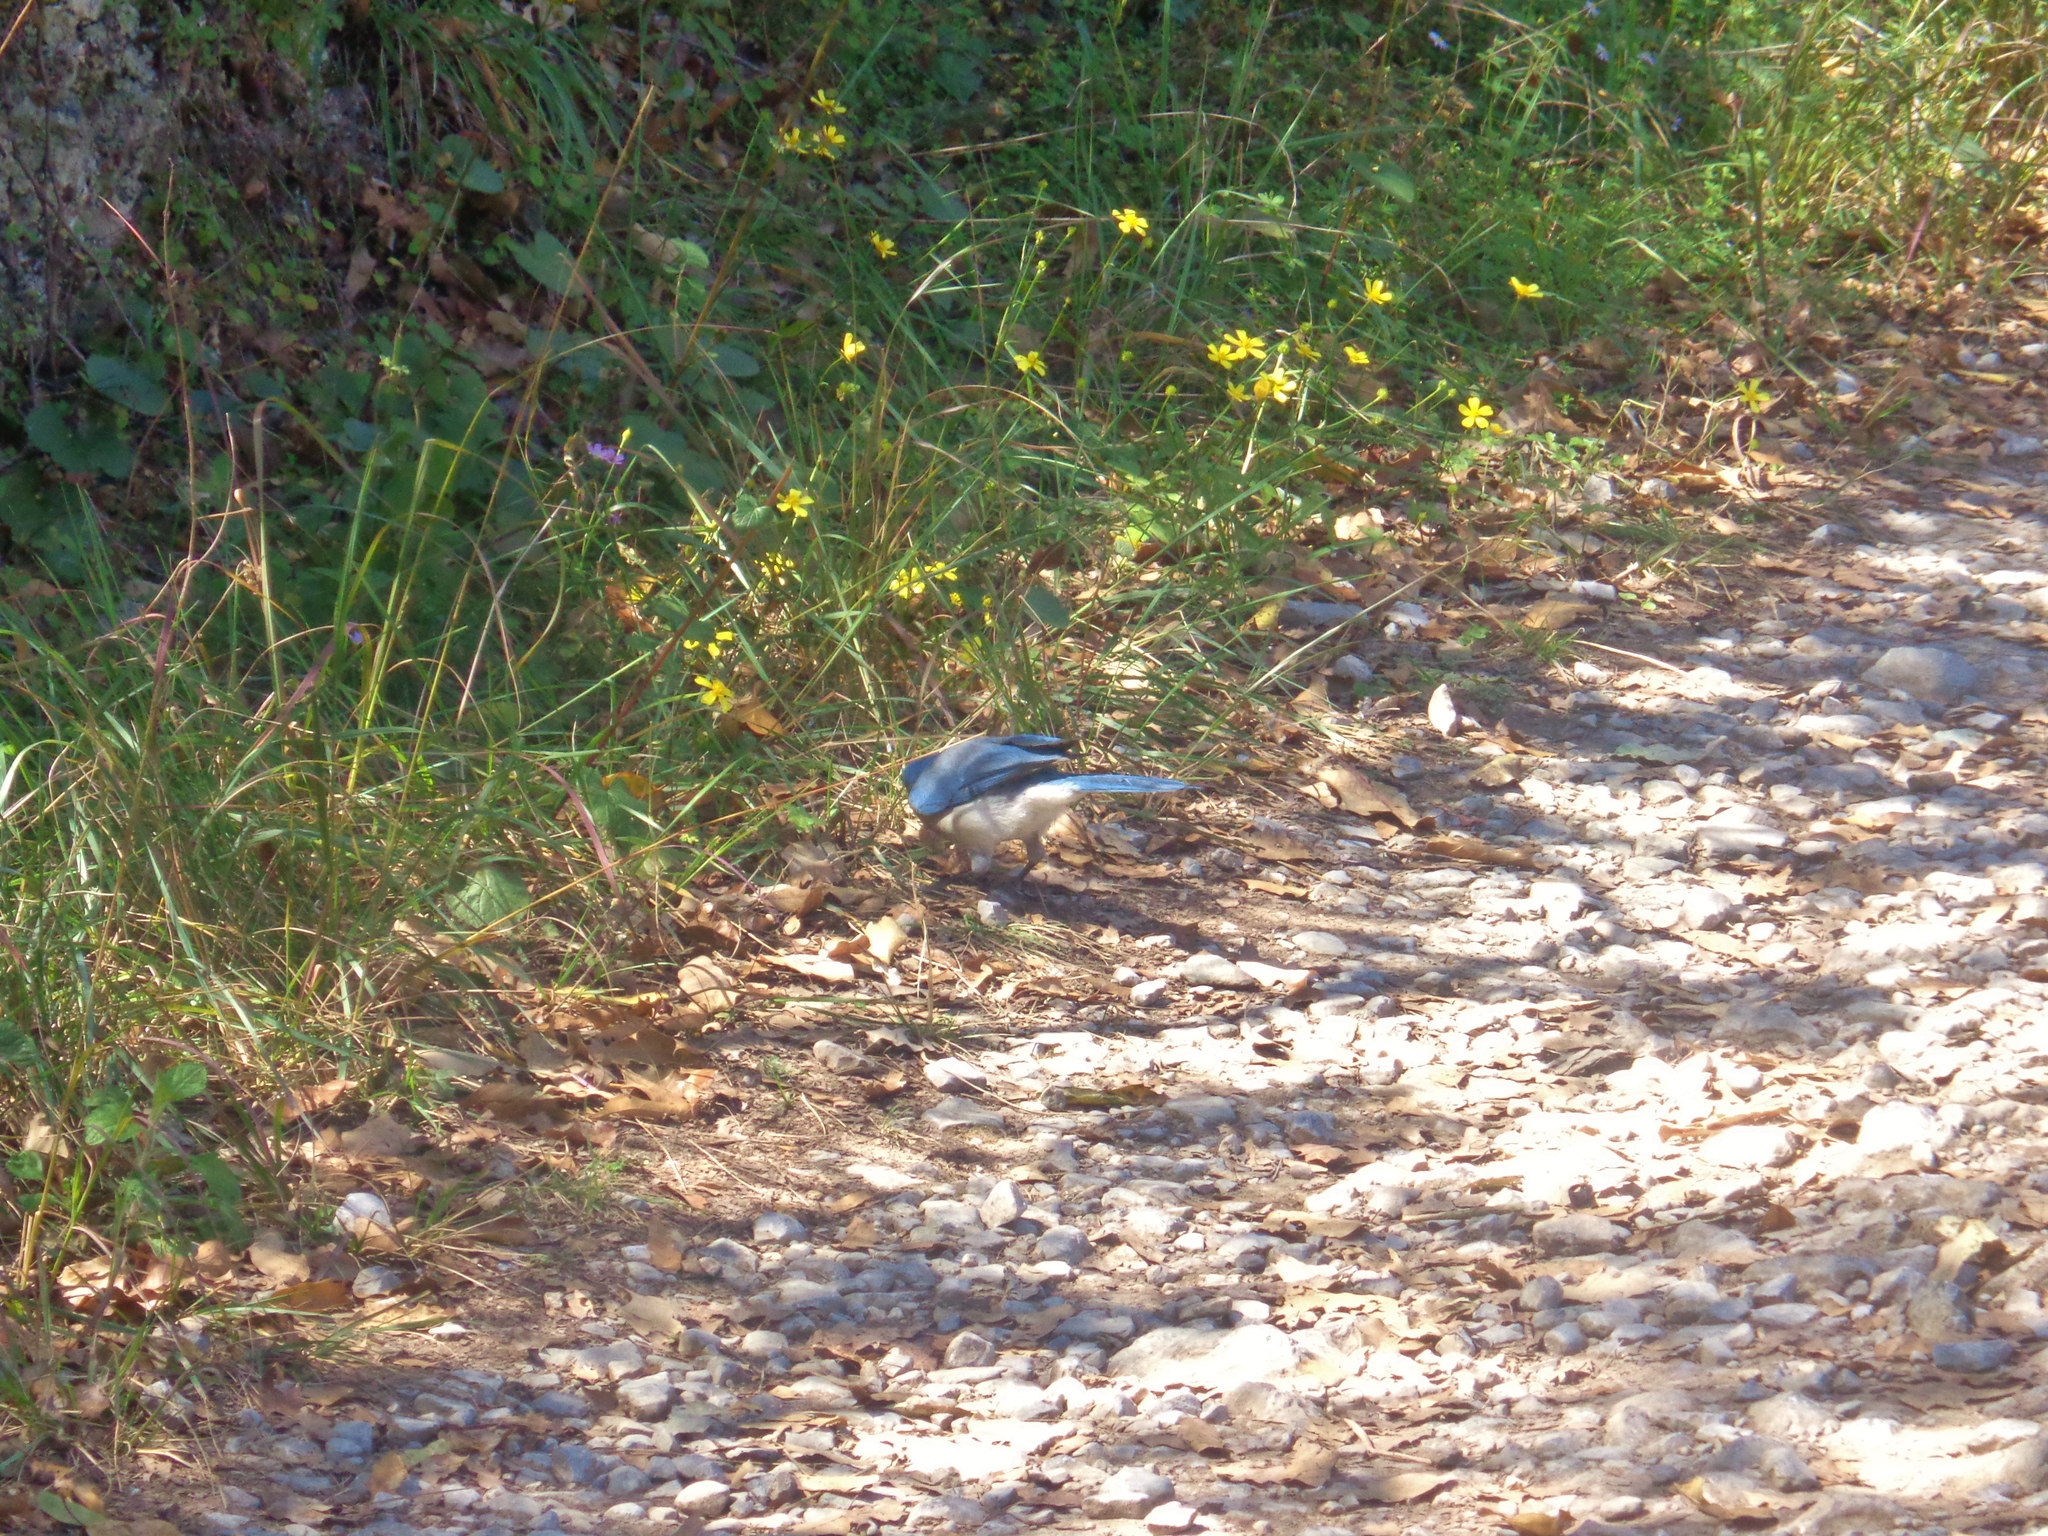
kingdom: Animalia
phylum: Chordata
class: Aves
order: Passeriformes
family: Corvidae
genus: Aphelocoma
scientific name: Aphelocoma wollweberi
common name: Mexican jay
